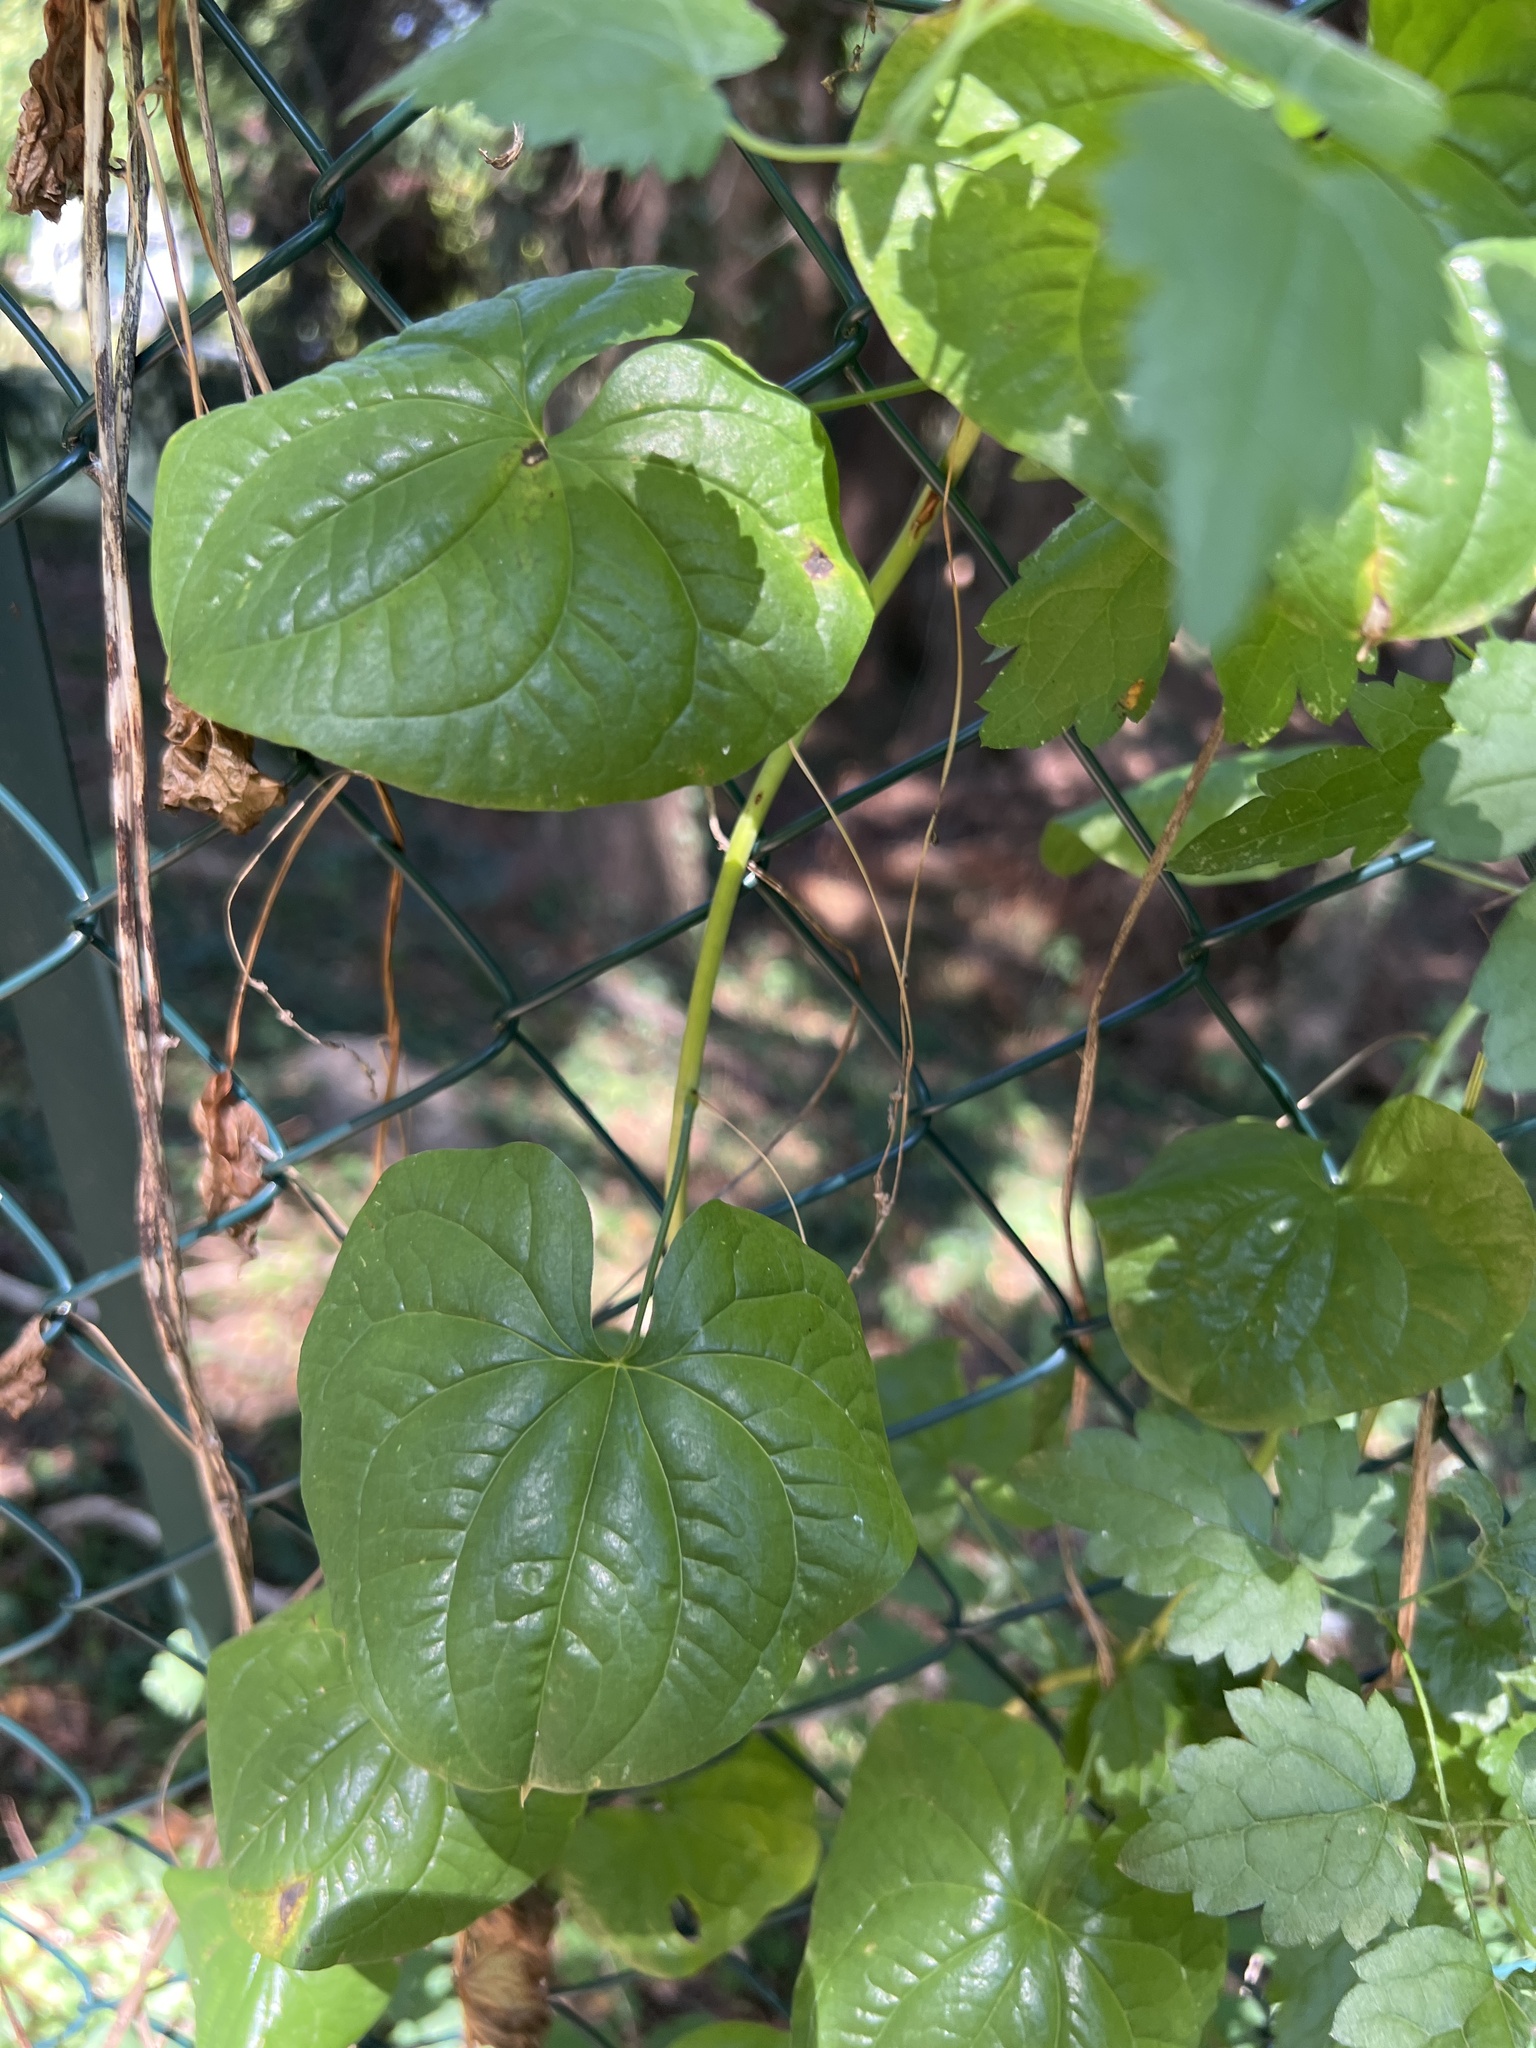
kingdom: Plantae
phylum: Tracheophyta
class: Liliopsida
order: Dioscoreales
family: Dioscoreaceae
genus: Dioscorea
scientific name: Dioscorea communis
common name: Black-bindweed
